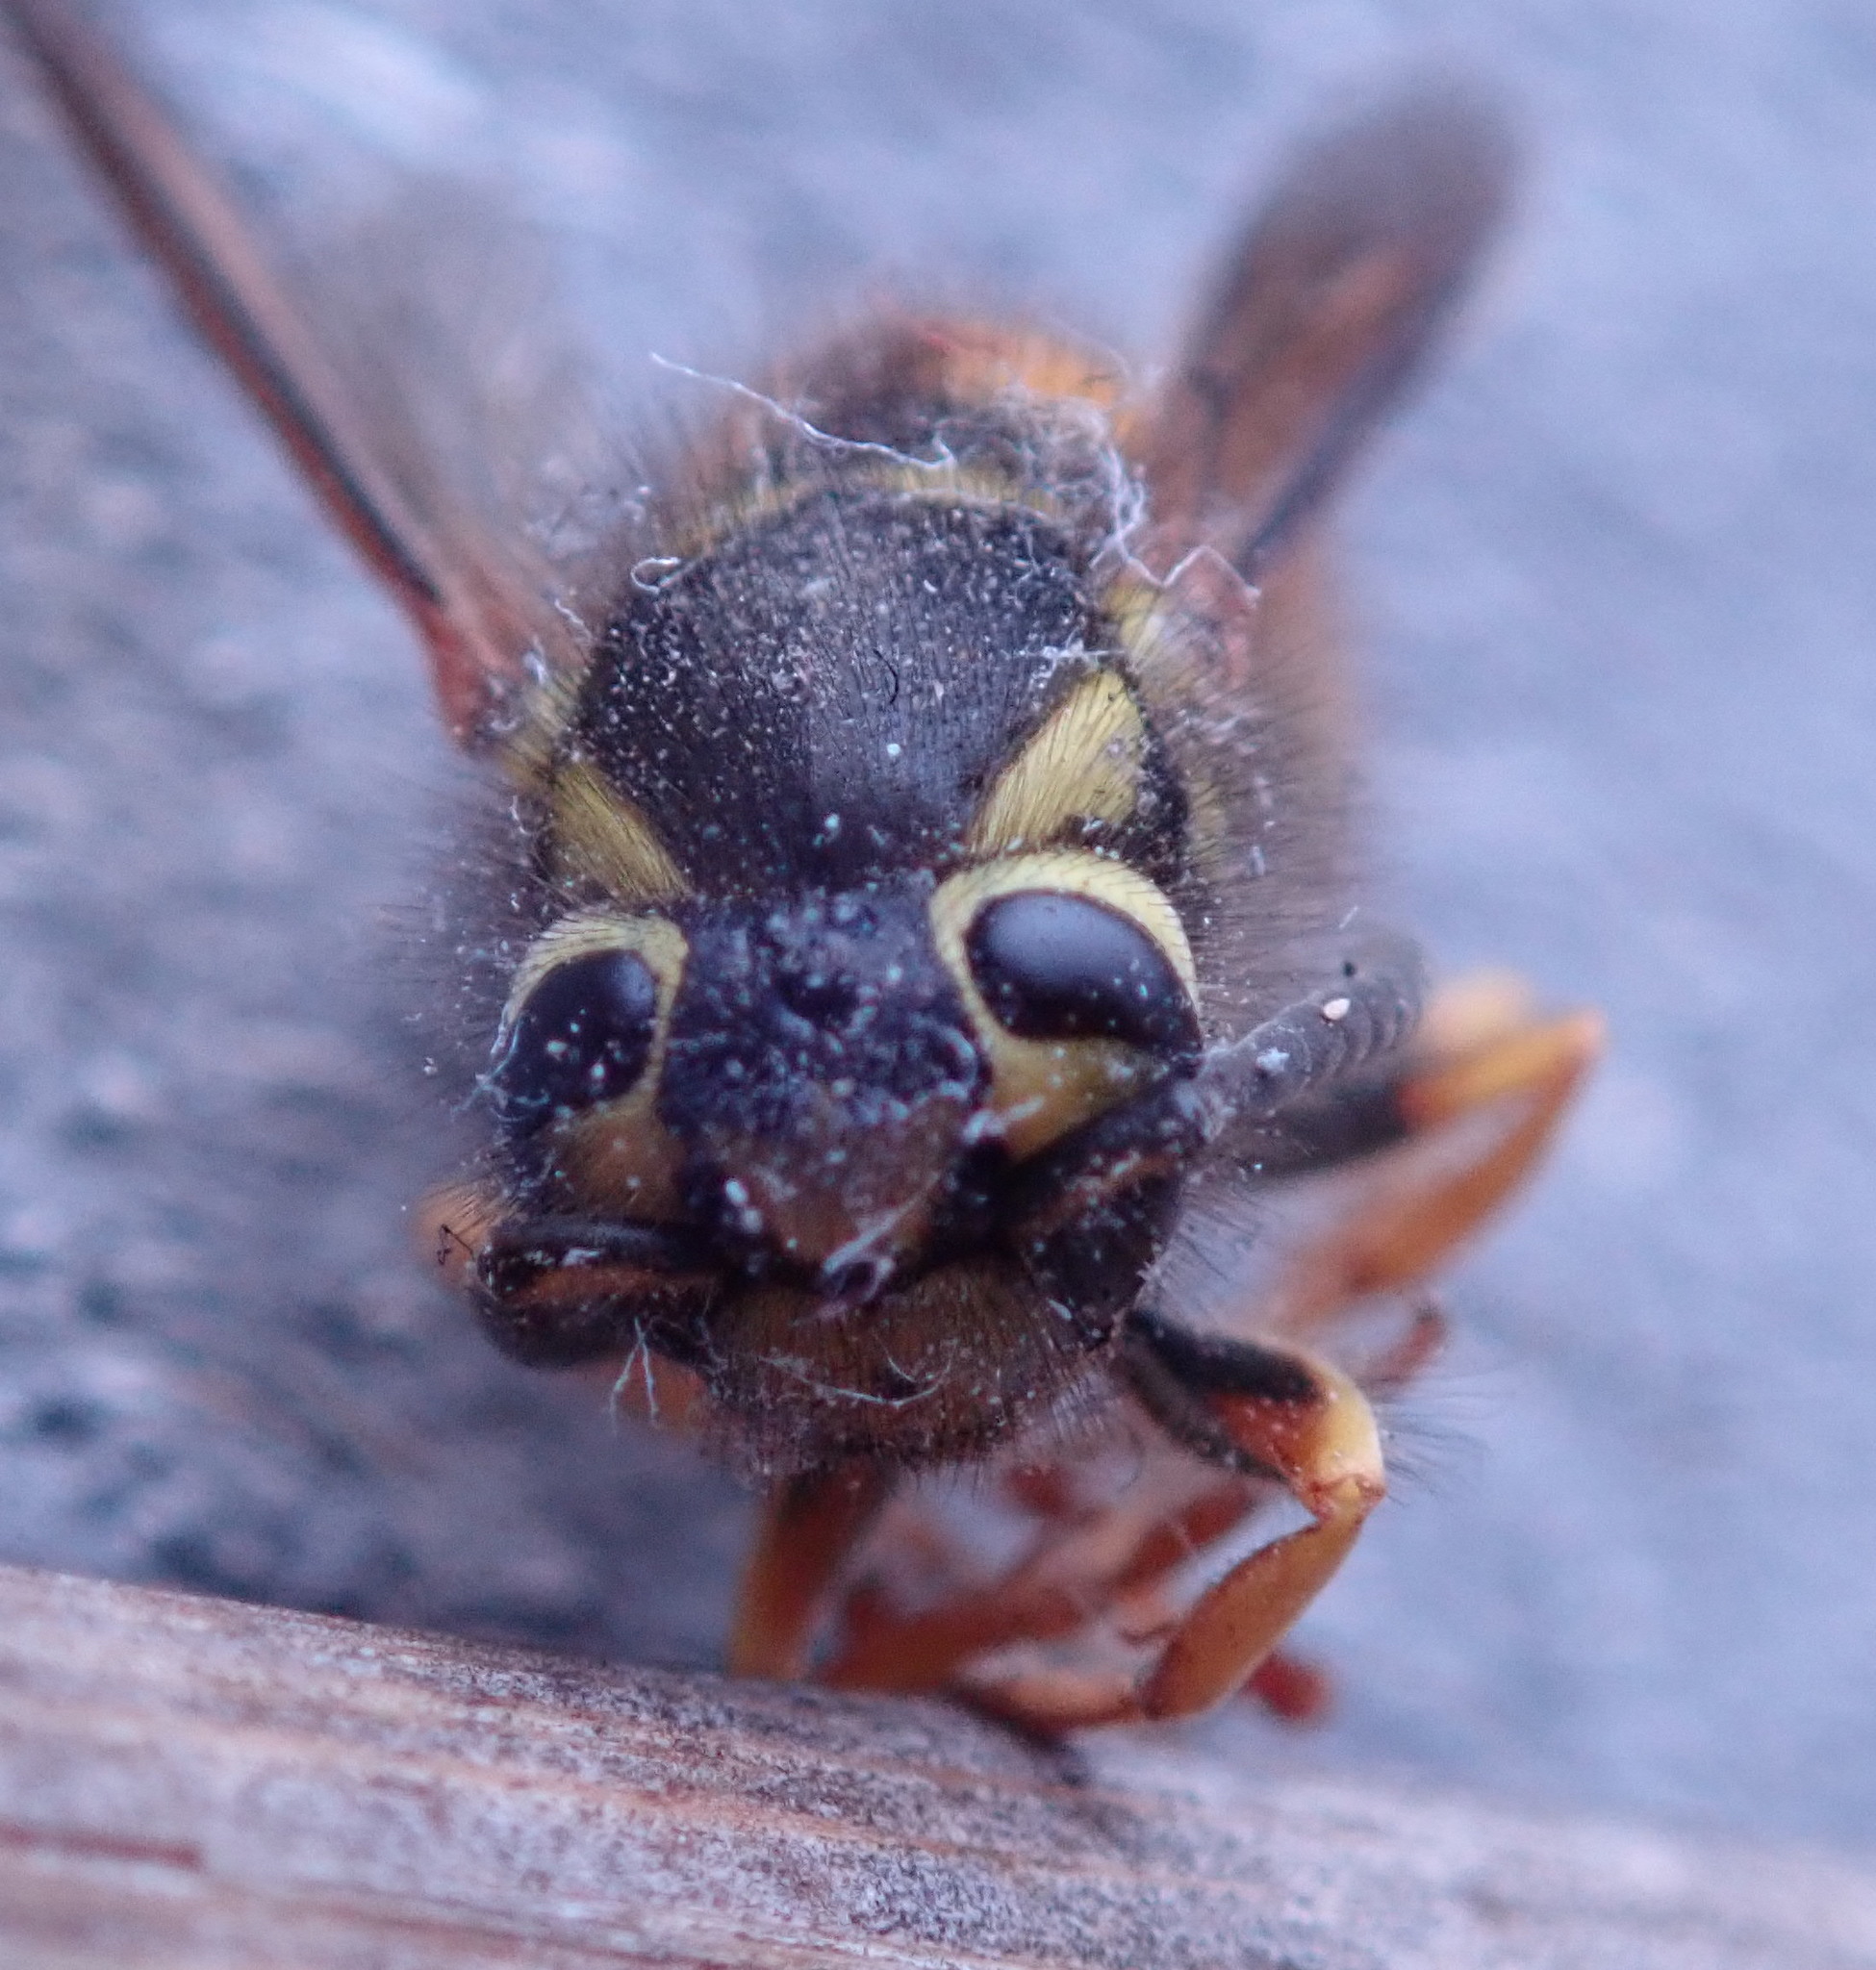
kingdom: Animalia
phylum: Arthropoda
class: Insecta
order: Hymenoptera
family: Vespidae
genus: Vespula
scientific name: Vespula pensylvanica
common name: Western yellowjacket
